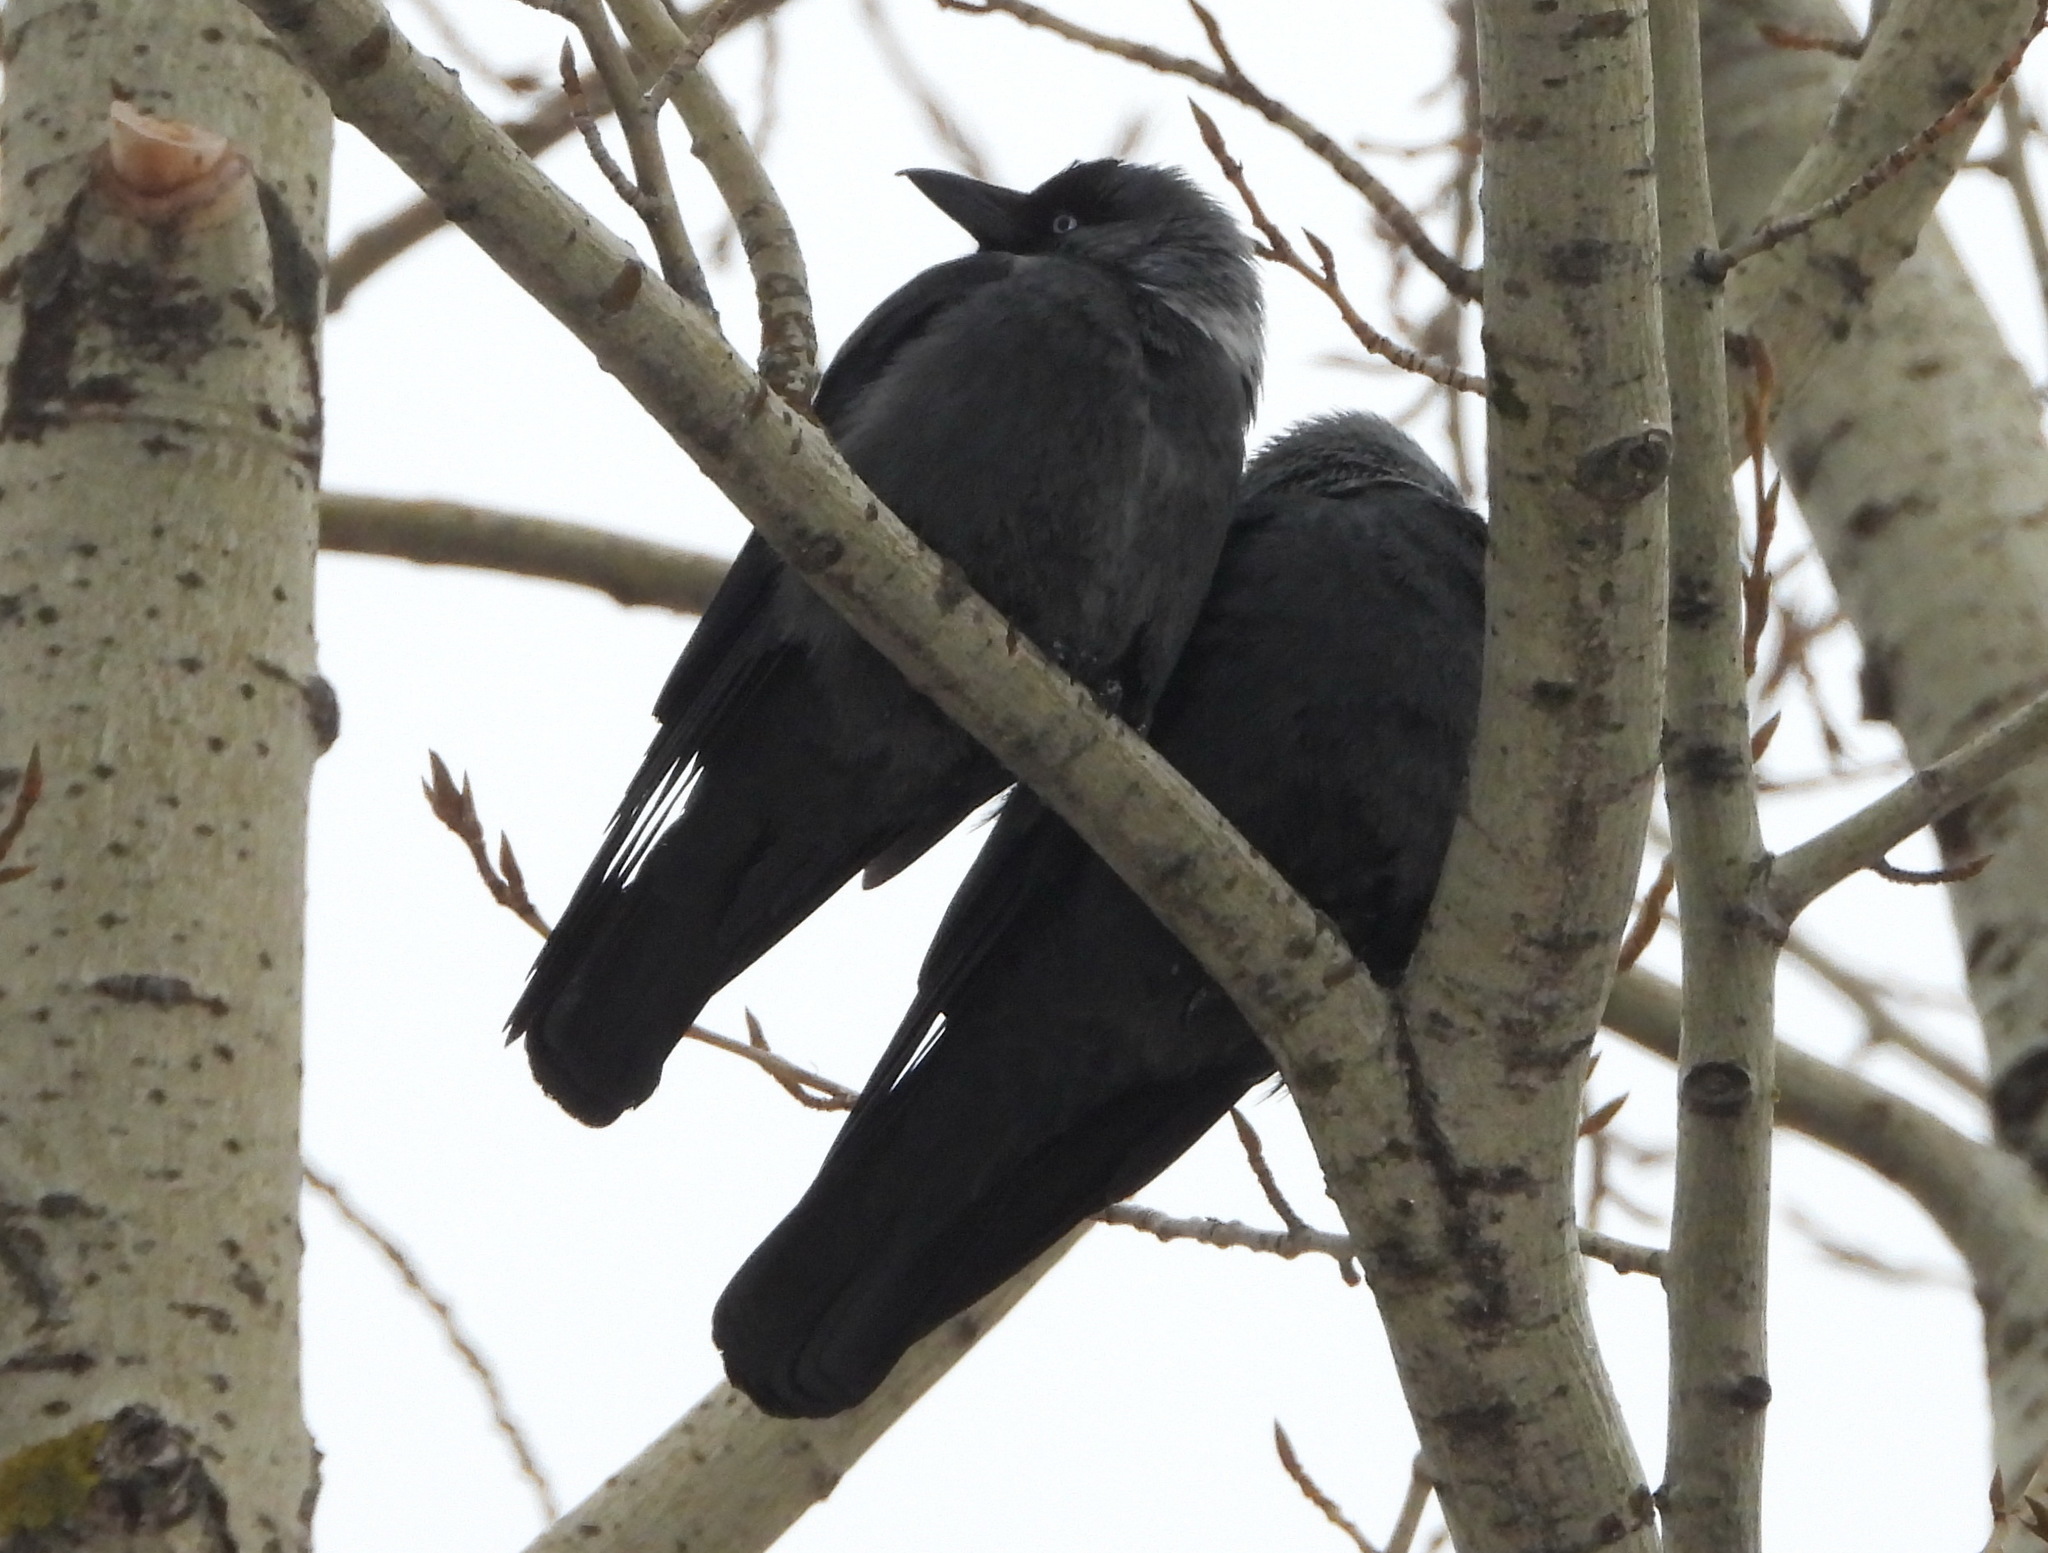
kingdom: Animalia
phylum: Chordata
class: Aves
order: Passeriformes
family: Corvidae
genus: Coloeus
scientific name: Coloeus monedula
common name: Western jackdaw
